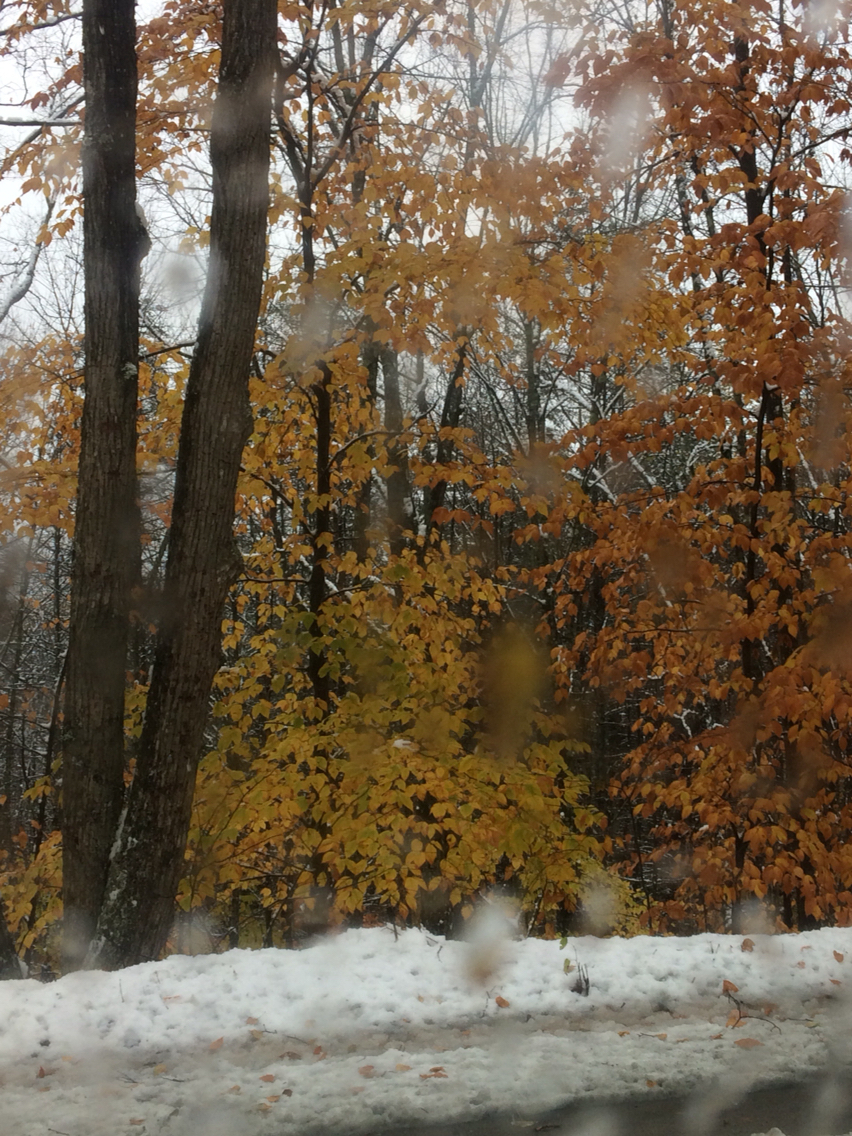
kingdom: Plantae
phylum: Tracheophyta
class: Magnoliopsida
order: Fagales
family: Fagaceae
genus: Fagus
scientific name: Fagus grandifolia
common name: American beech
